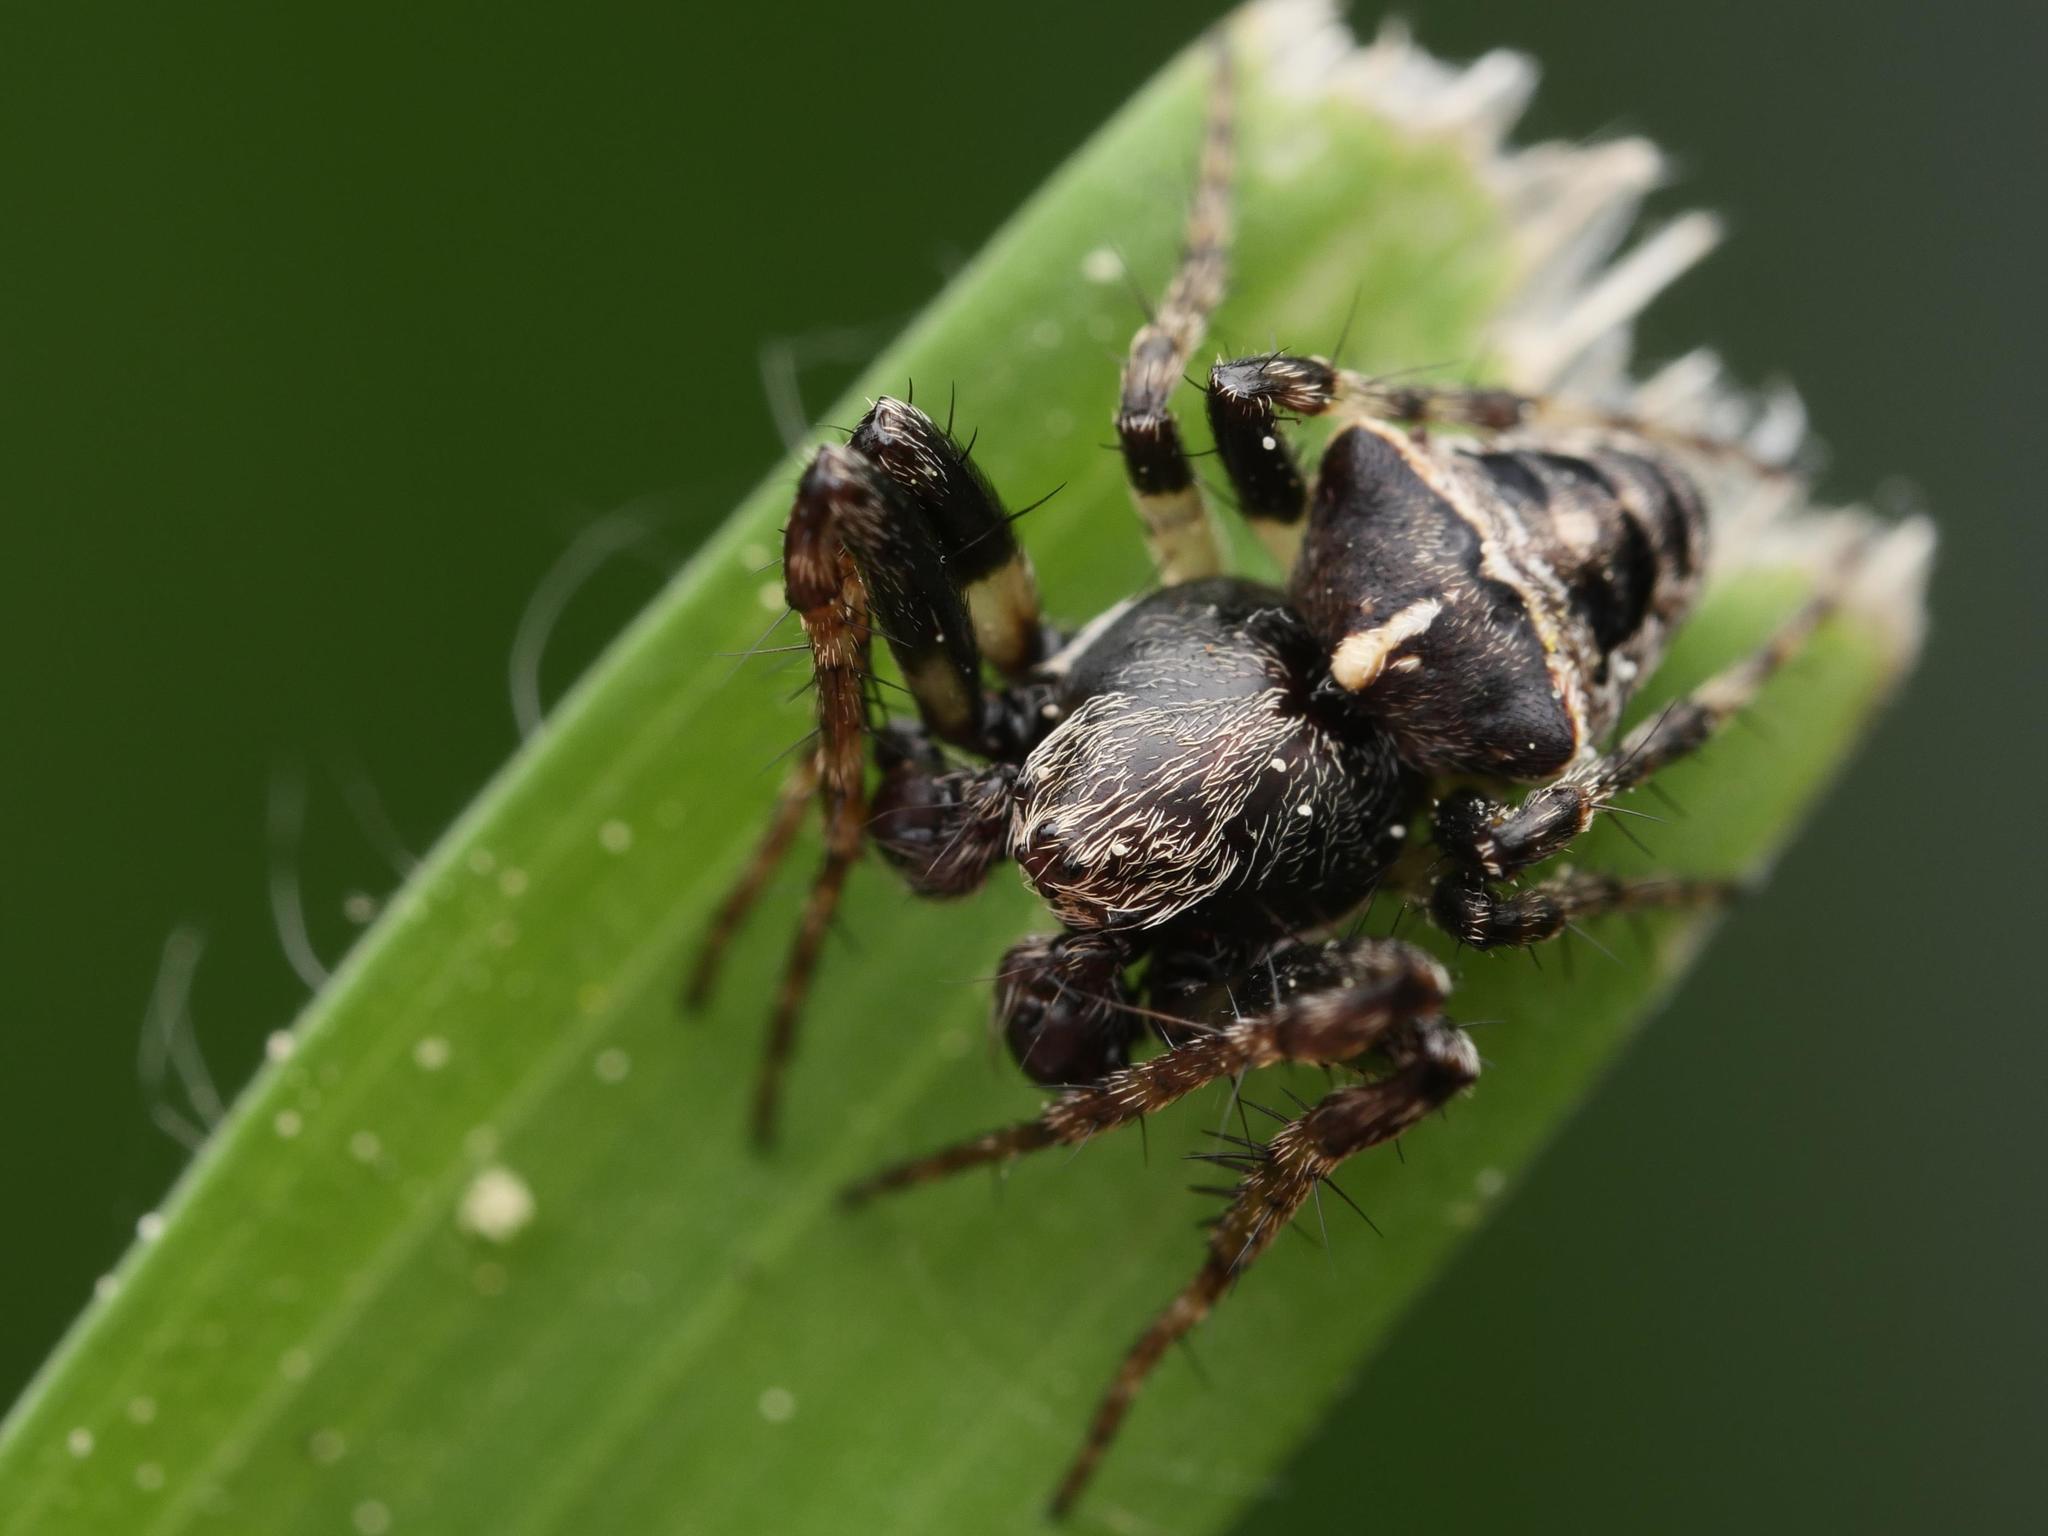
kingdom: Animalia
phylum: Arthropoda
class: Arachnida
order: Araneae
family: Araneidae
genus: Gibbaranea
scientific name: Gibbaranea bituberculata
